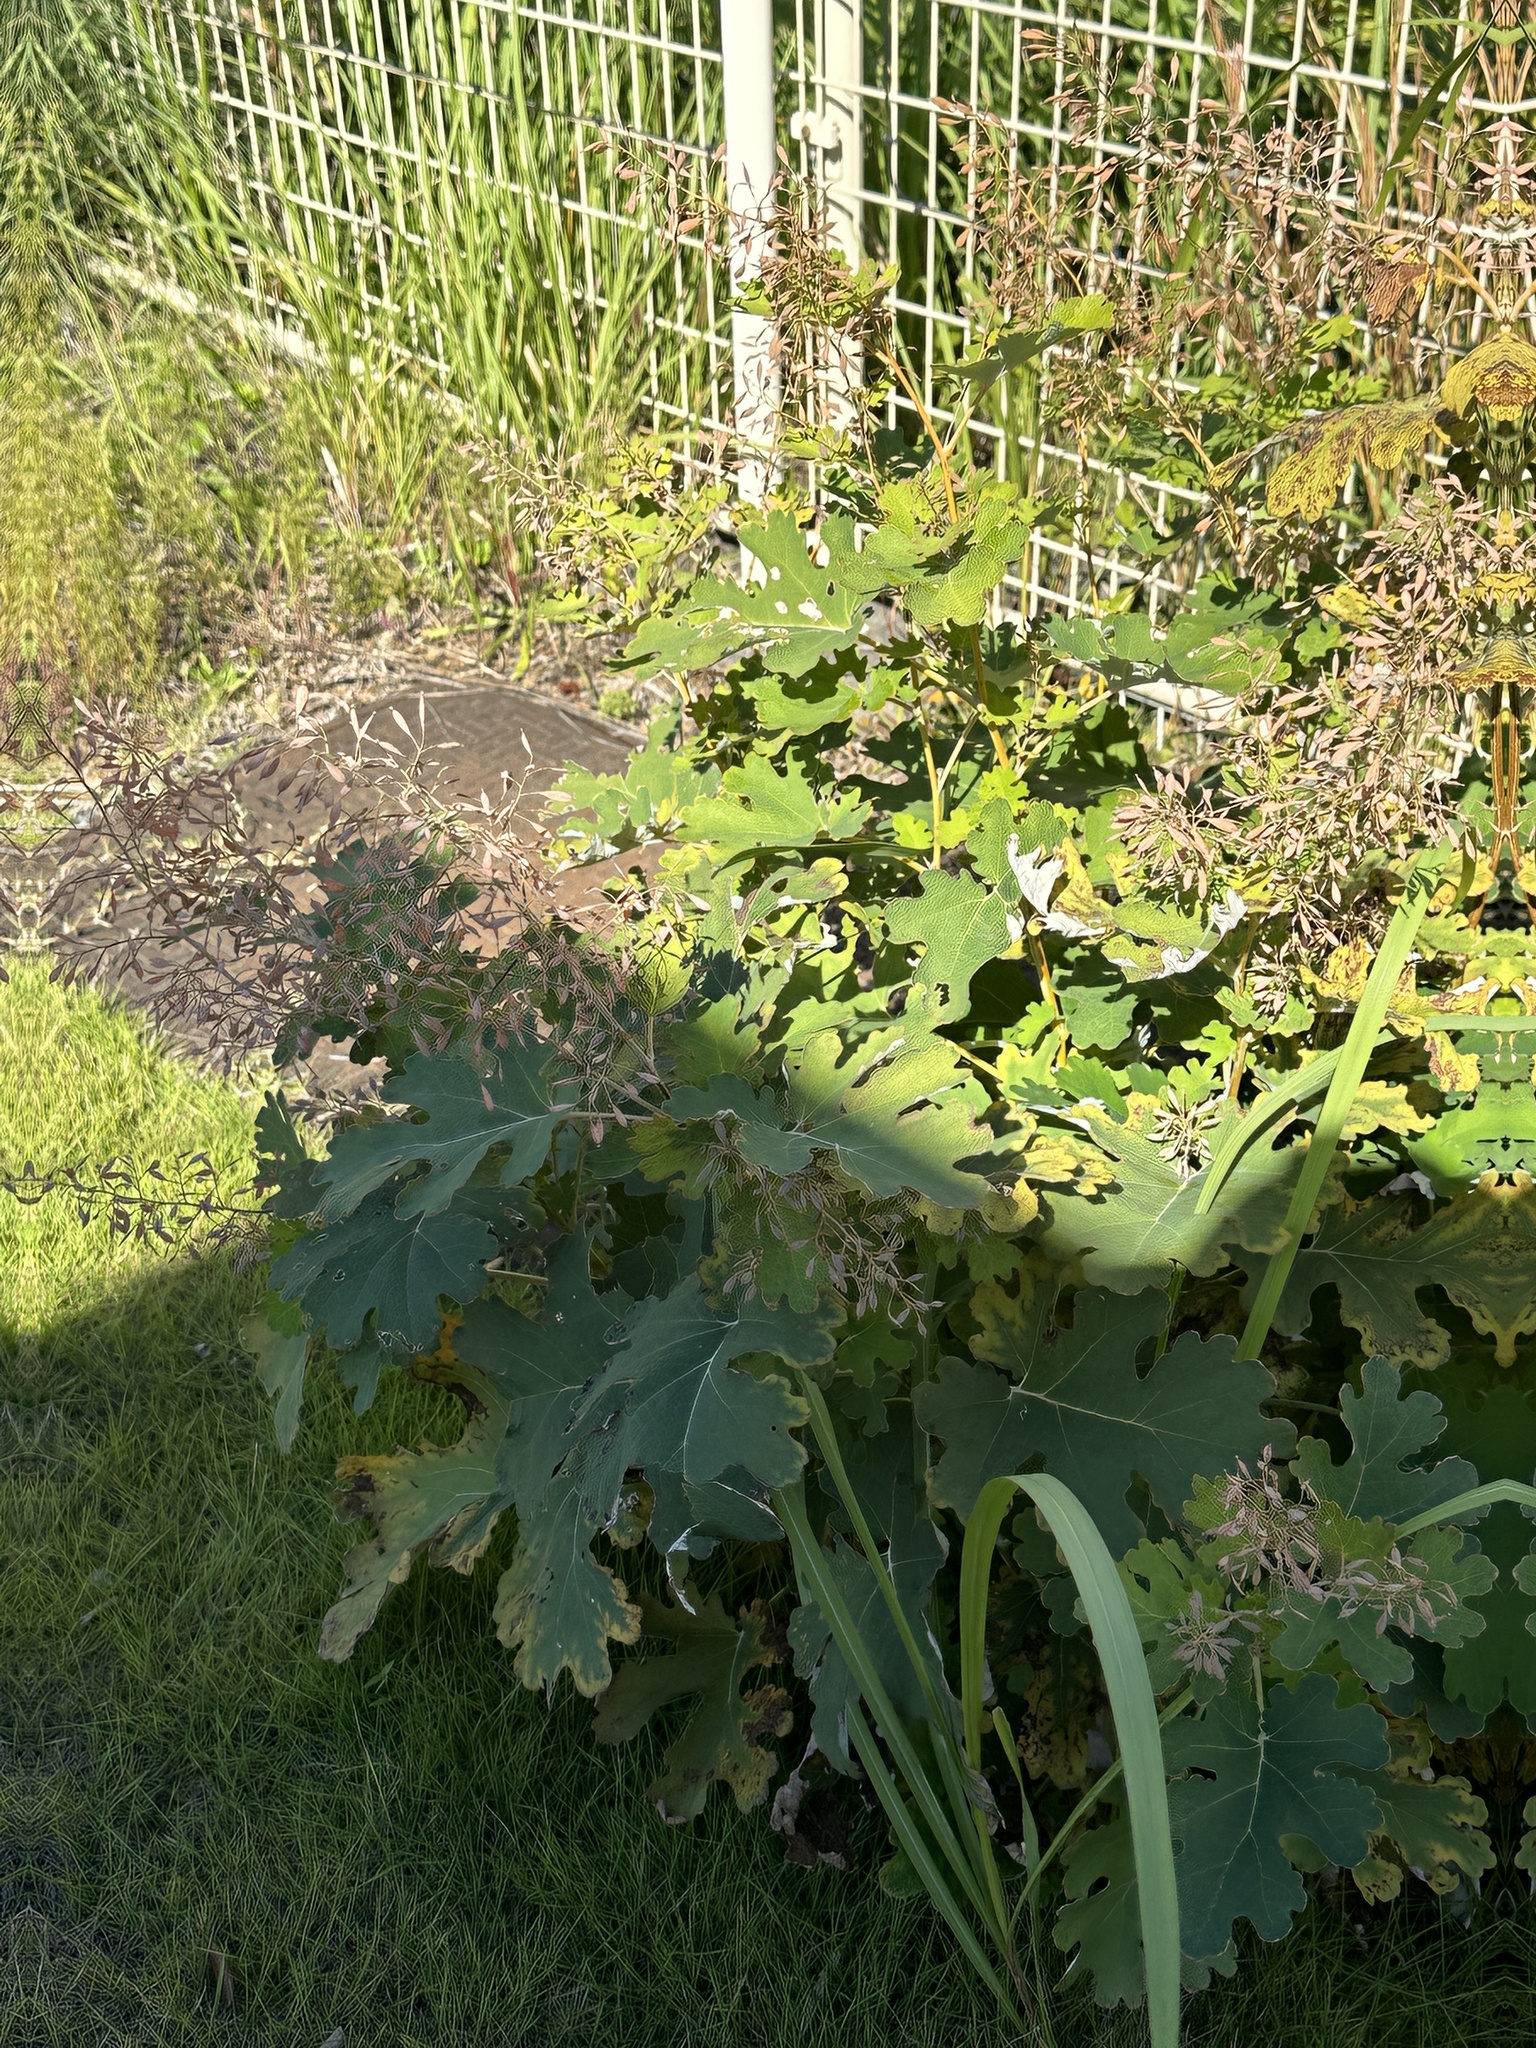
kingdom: Plantae
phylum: Tracheophyta
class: Magnoliopsida
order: Ranunculales
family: Papaveraceae
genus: Macleaya
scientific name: Macleaya cordata
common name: Plume poppy
